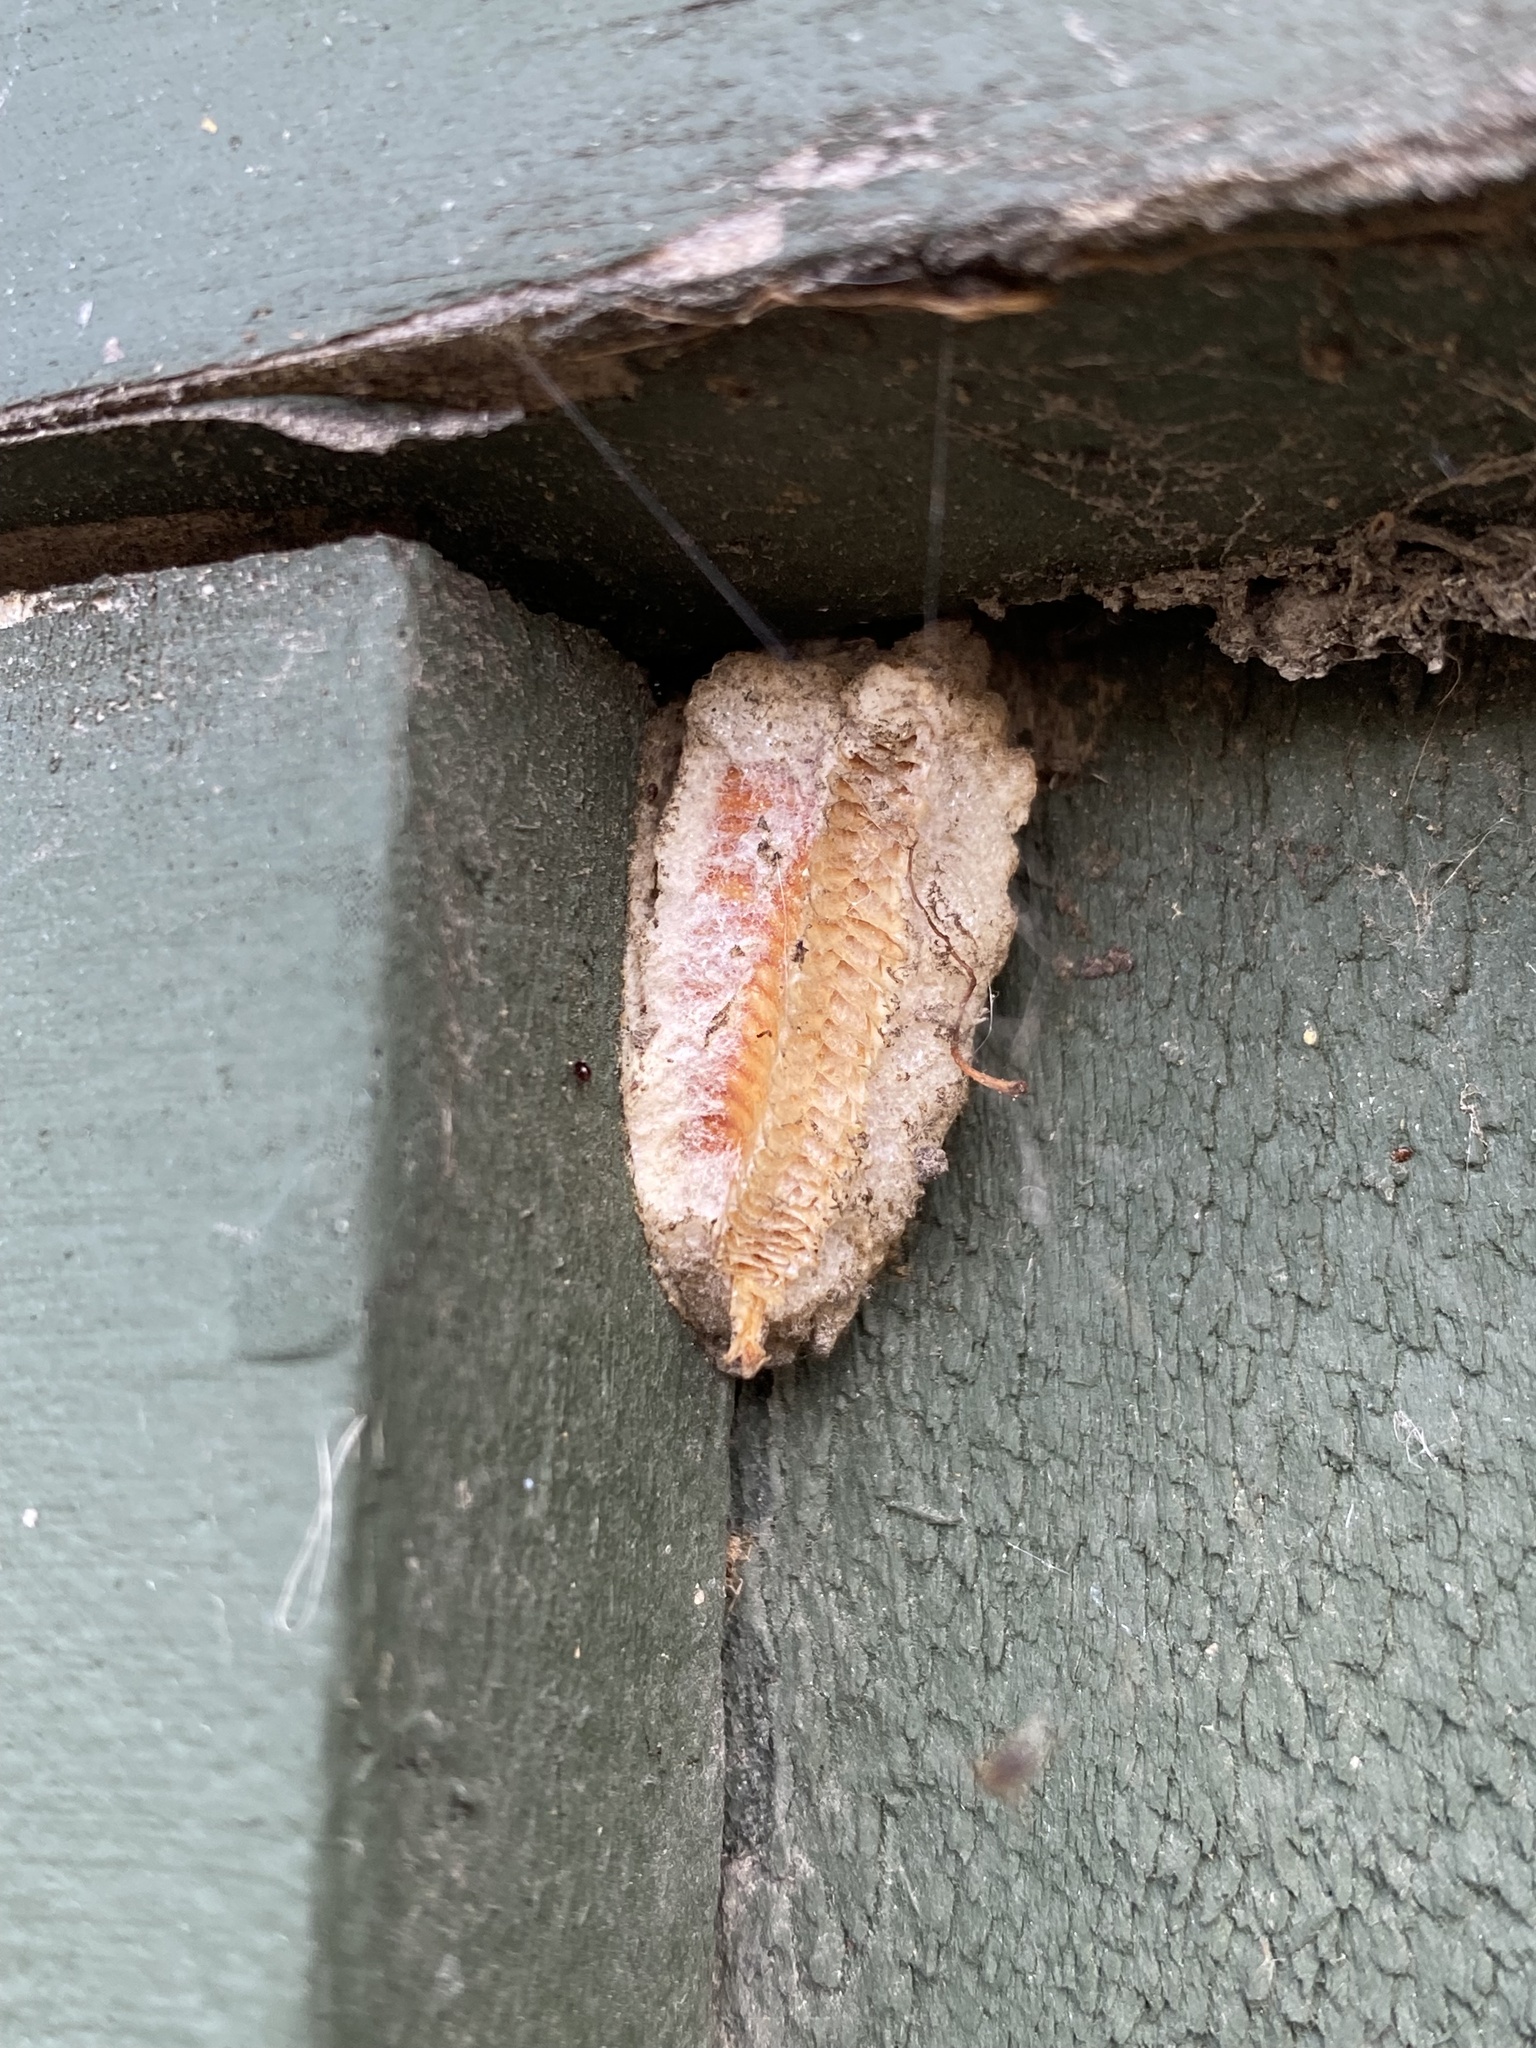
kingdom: Animalia
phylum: Arthropoda
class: Insecta
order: Mantodea
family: Miomantidae
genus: Miomantis
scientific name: Miomantis caffra
